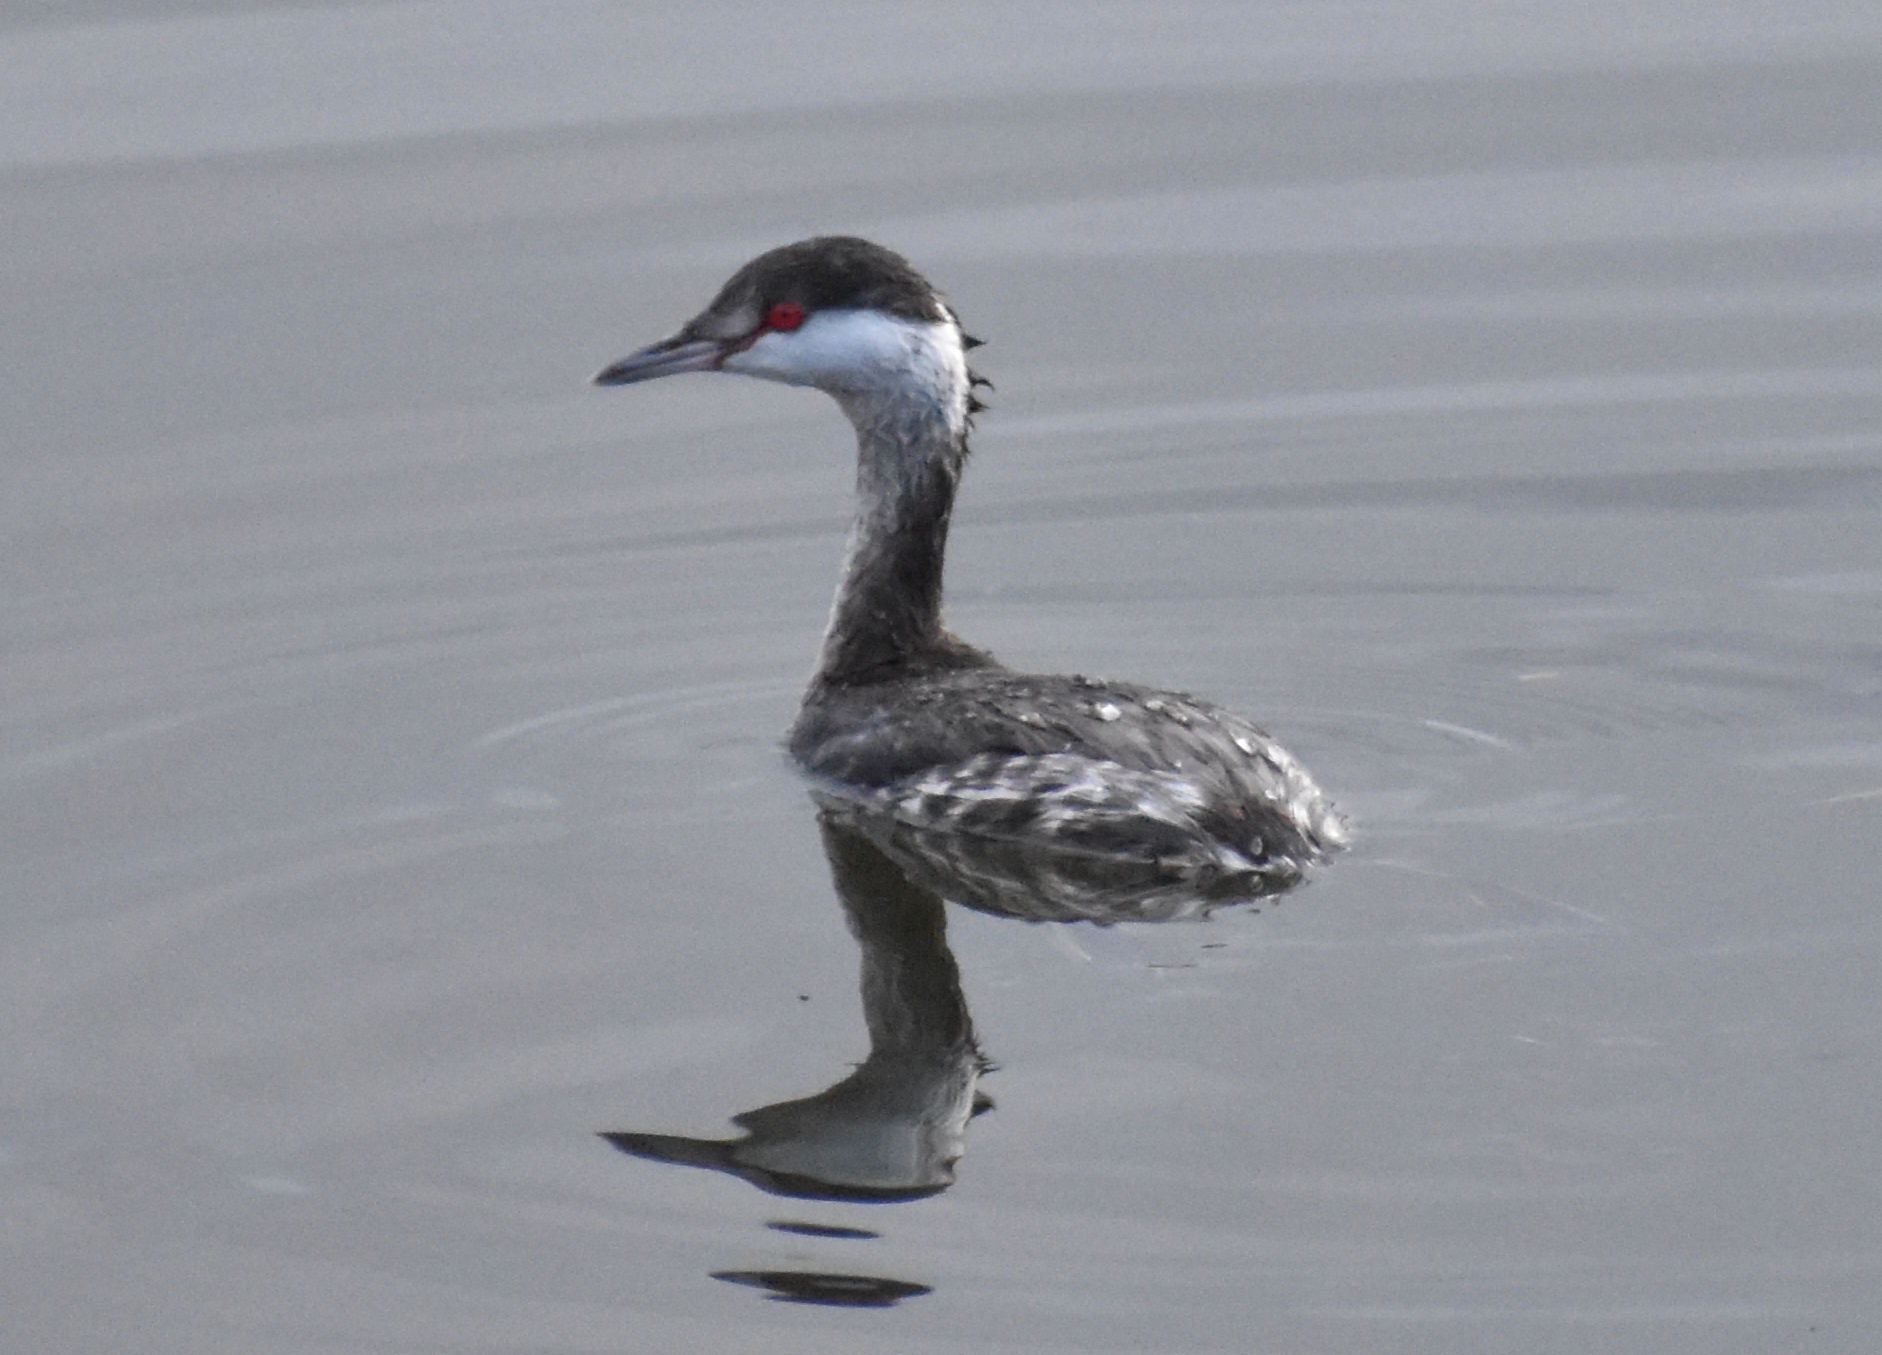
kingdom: Animalia
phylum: Chordata
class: Aves
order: Podicipediformes
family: Podicipedidae
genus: Podiceps
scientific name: Podiceps auritus
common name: Horned grebe
